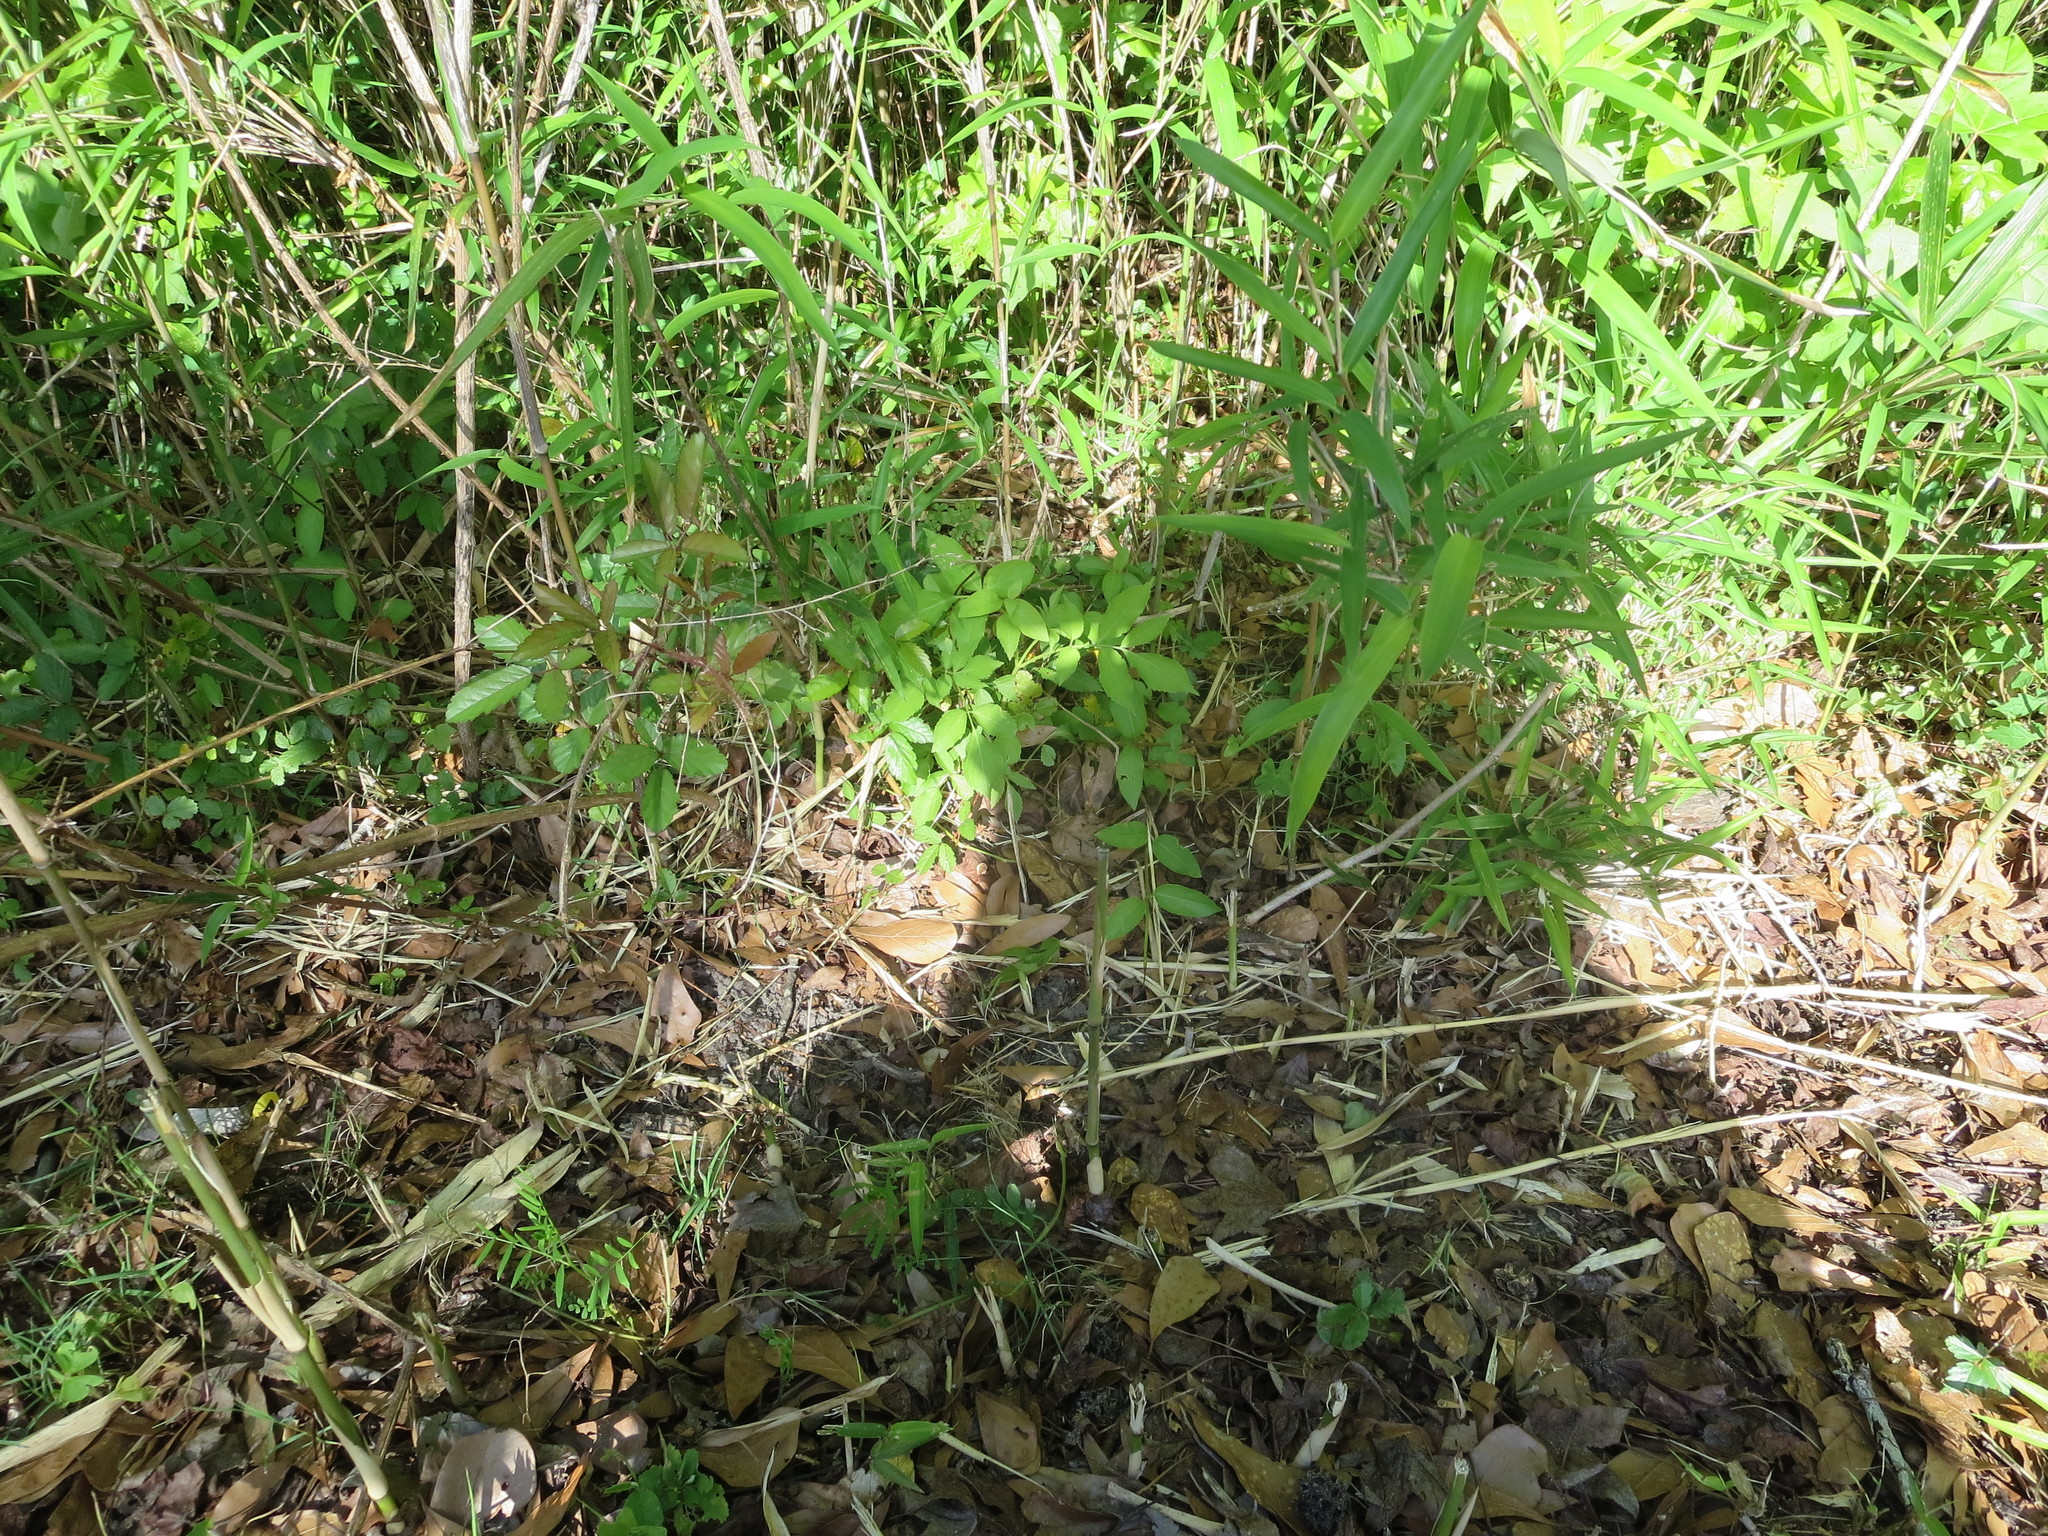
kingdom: Plantae
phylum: Tracheophyta
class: Magnoliopsida
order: Dipsacales
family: Viburnaceae
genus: Sambucus
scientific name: Sambucus canadensis
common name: American elder
